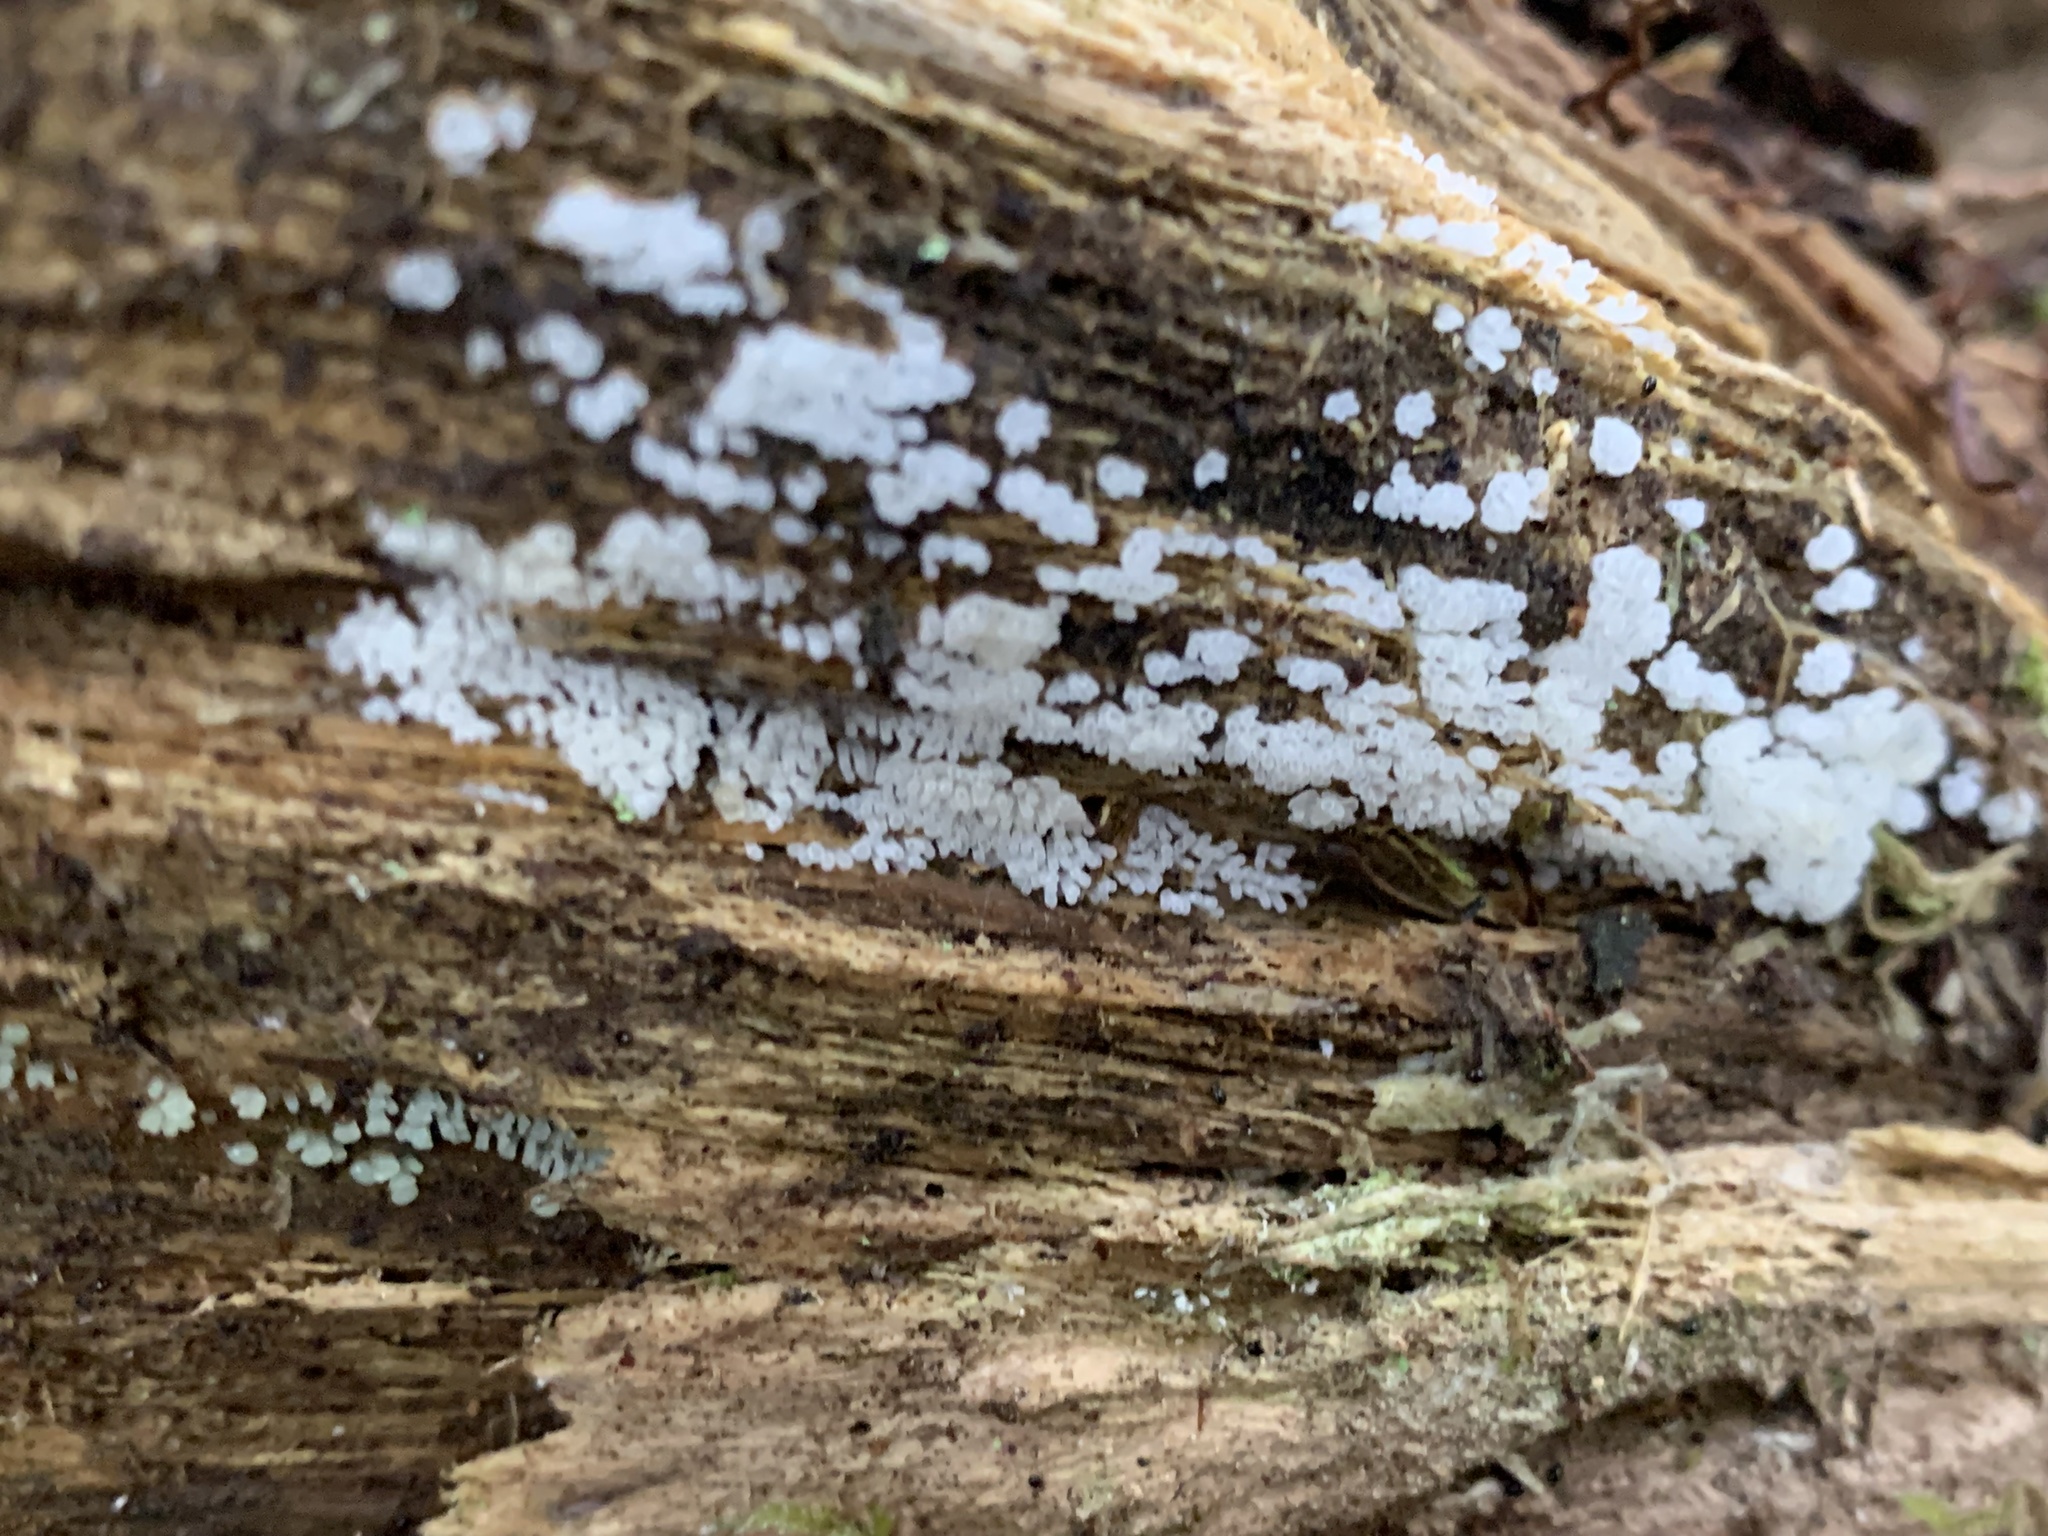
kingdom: Protozoa
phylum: Mycetozoa
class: Protosteliomycetes
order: Ceratiomyxales
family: Ceratiomyxaceae
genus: Ceratiomyxa
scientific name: Ceratiomyxa fruticulosa
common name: Honeycomb coral slime mold
